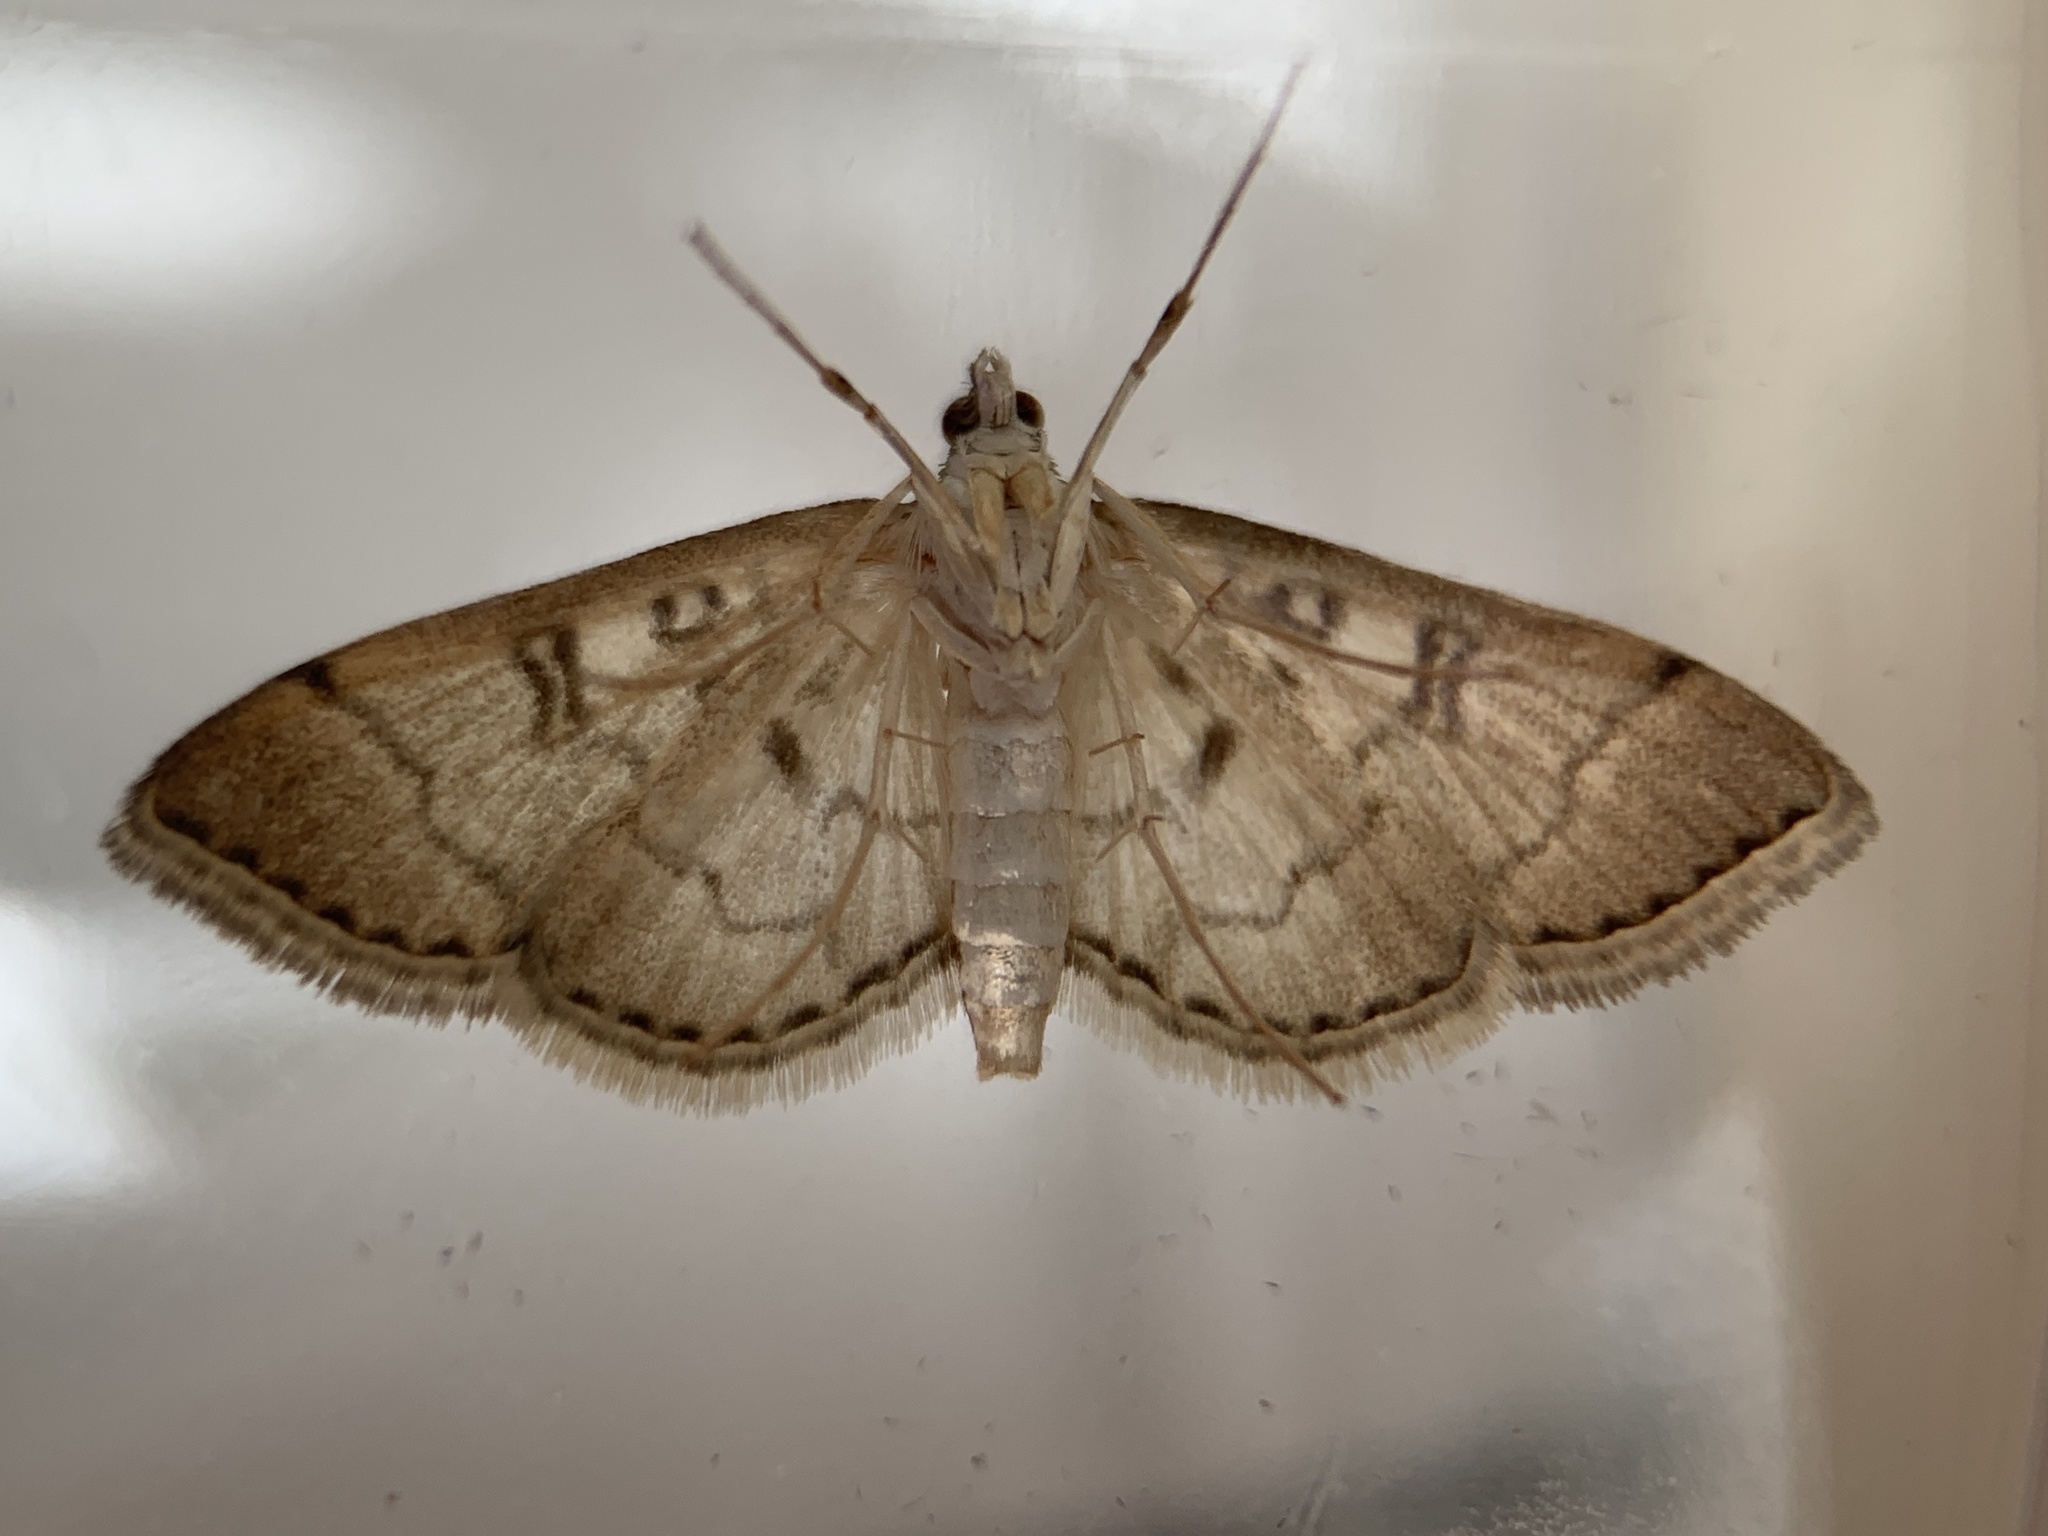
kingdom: Animalia
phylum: Arthropoda
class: Insecta
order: Lepidoptera
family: Crambidae
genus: Lamprosema
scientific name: Lamprosema Blepharomastix ranalis
